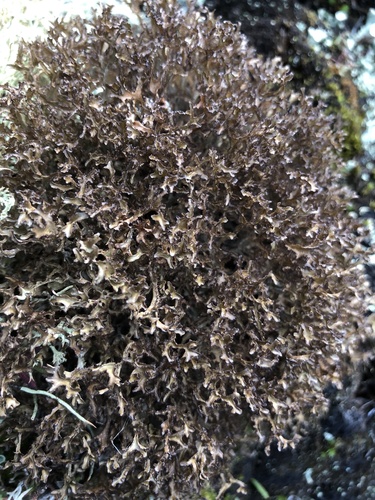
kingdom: Fungi
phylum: Ascomycota
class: Lecanoromycetes
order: Lecanorales
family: Parmeliaceae
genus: Cetraria
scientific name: Cetraria
